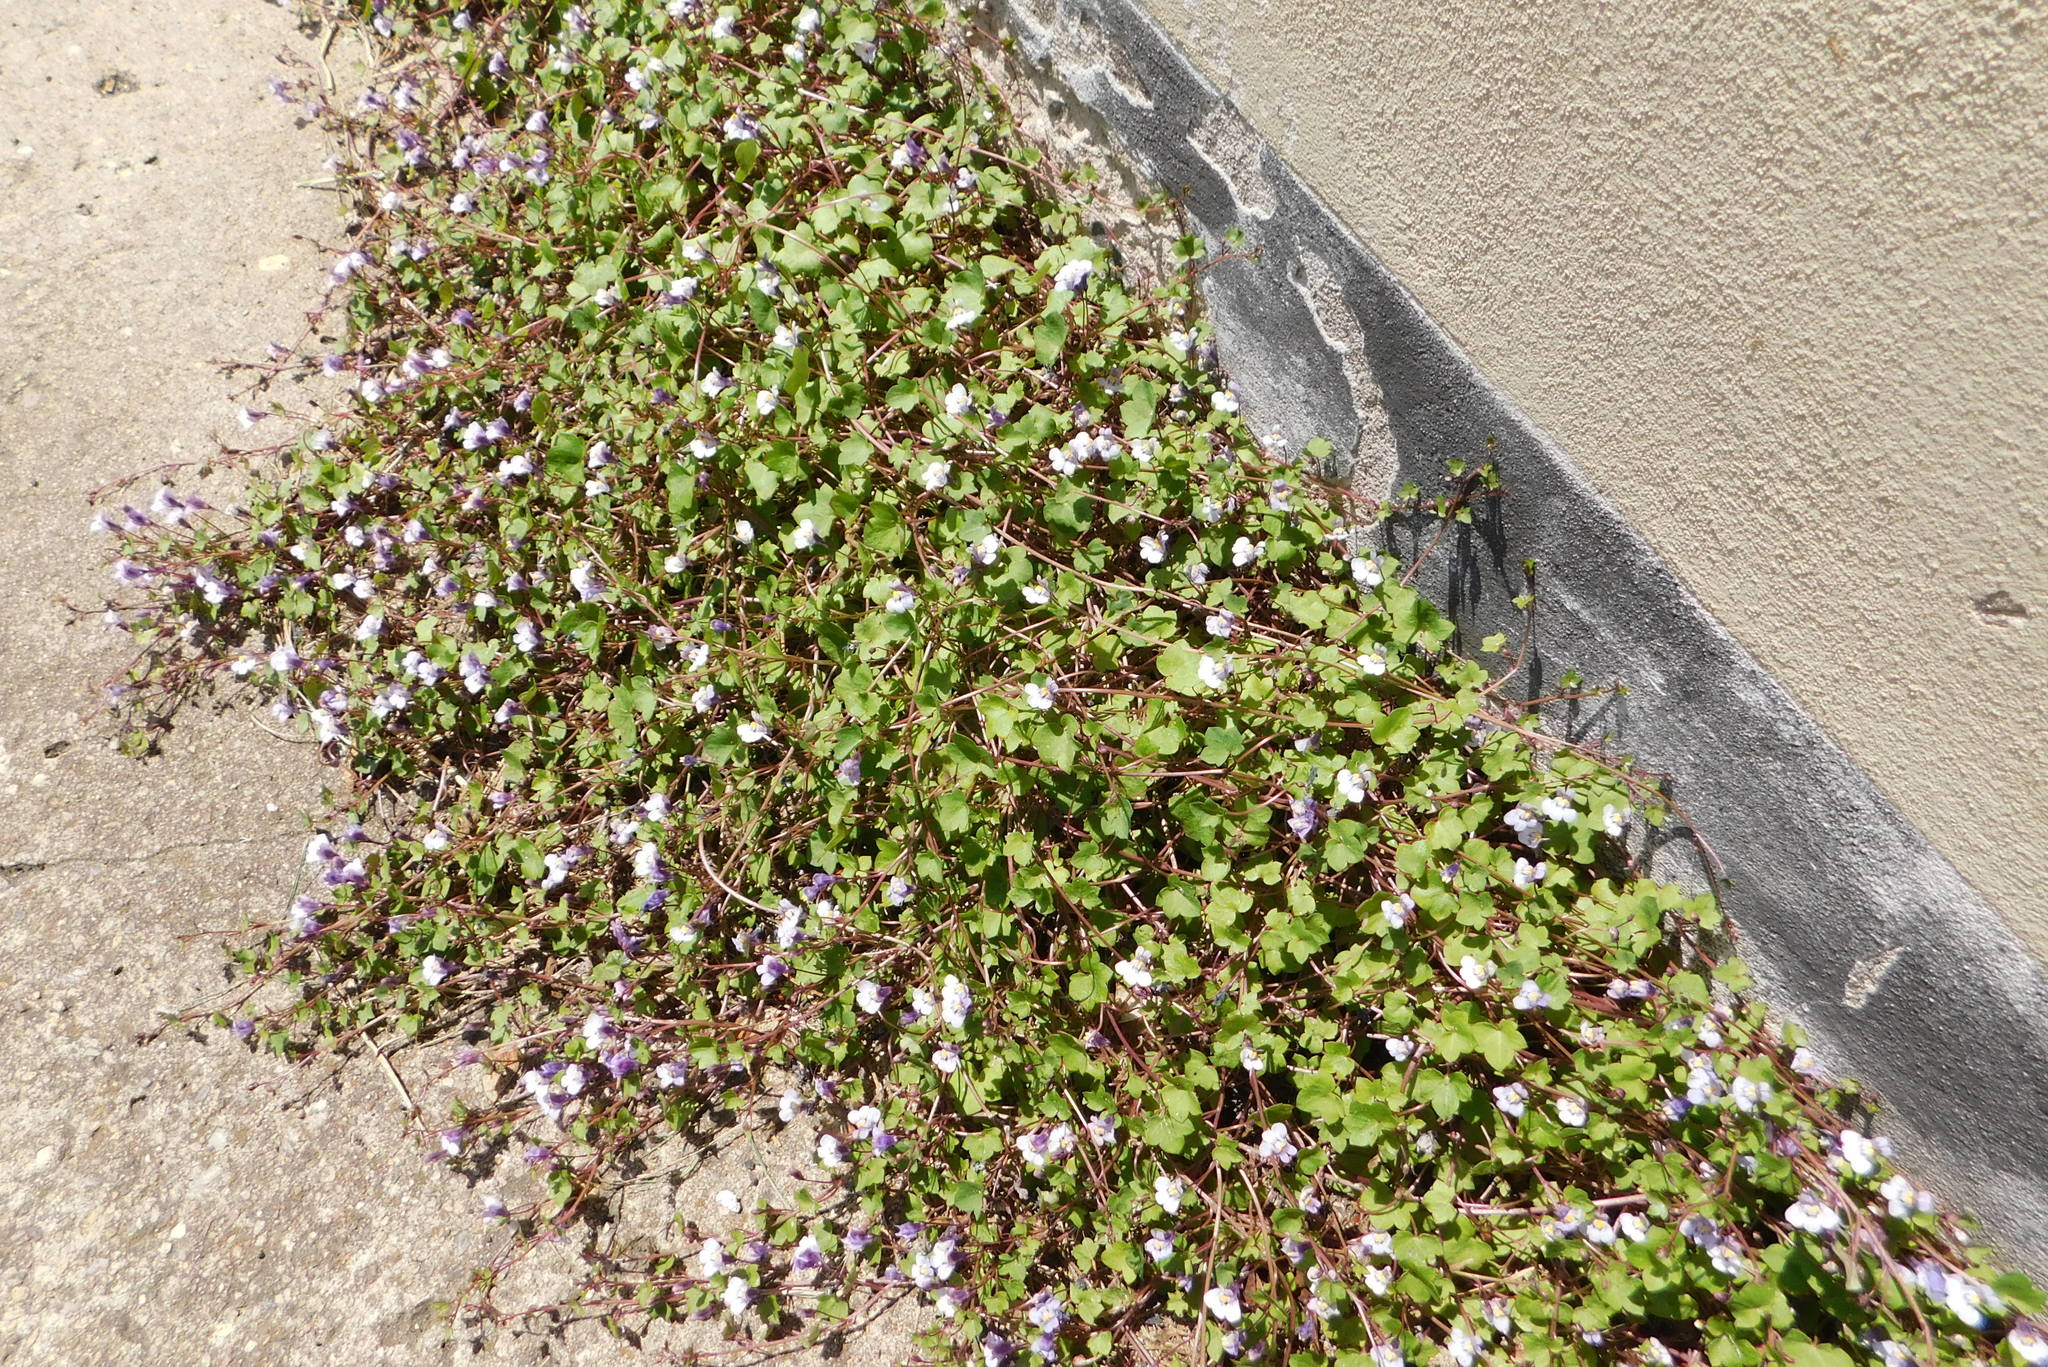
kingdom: Plantae
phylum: Tracheophyta
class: Magnoliopsida
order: Lamiales
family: Plantaginaceae
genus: Cymbalaria
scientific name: Cymbalaria muralis
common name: Ivy-leaved toadflax
